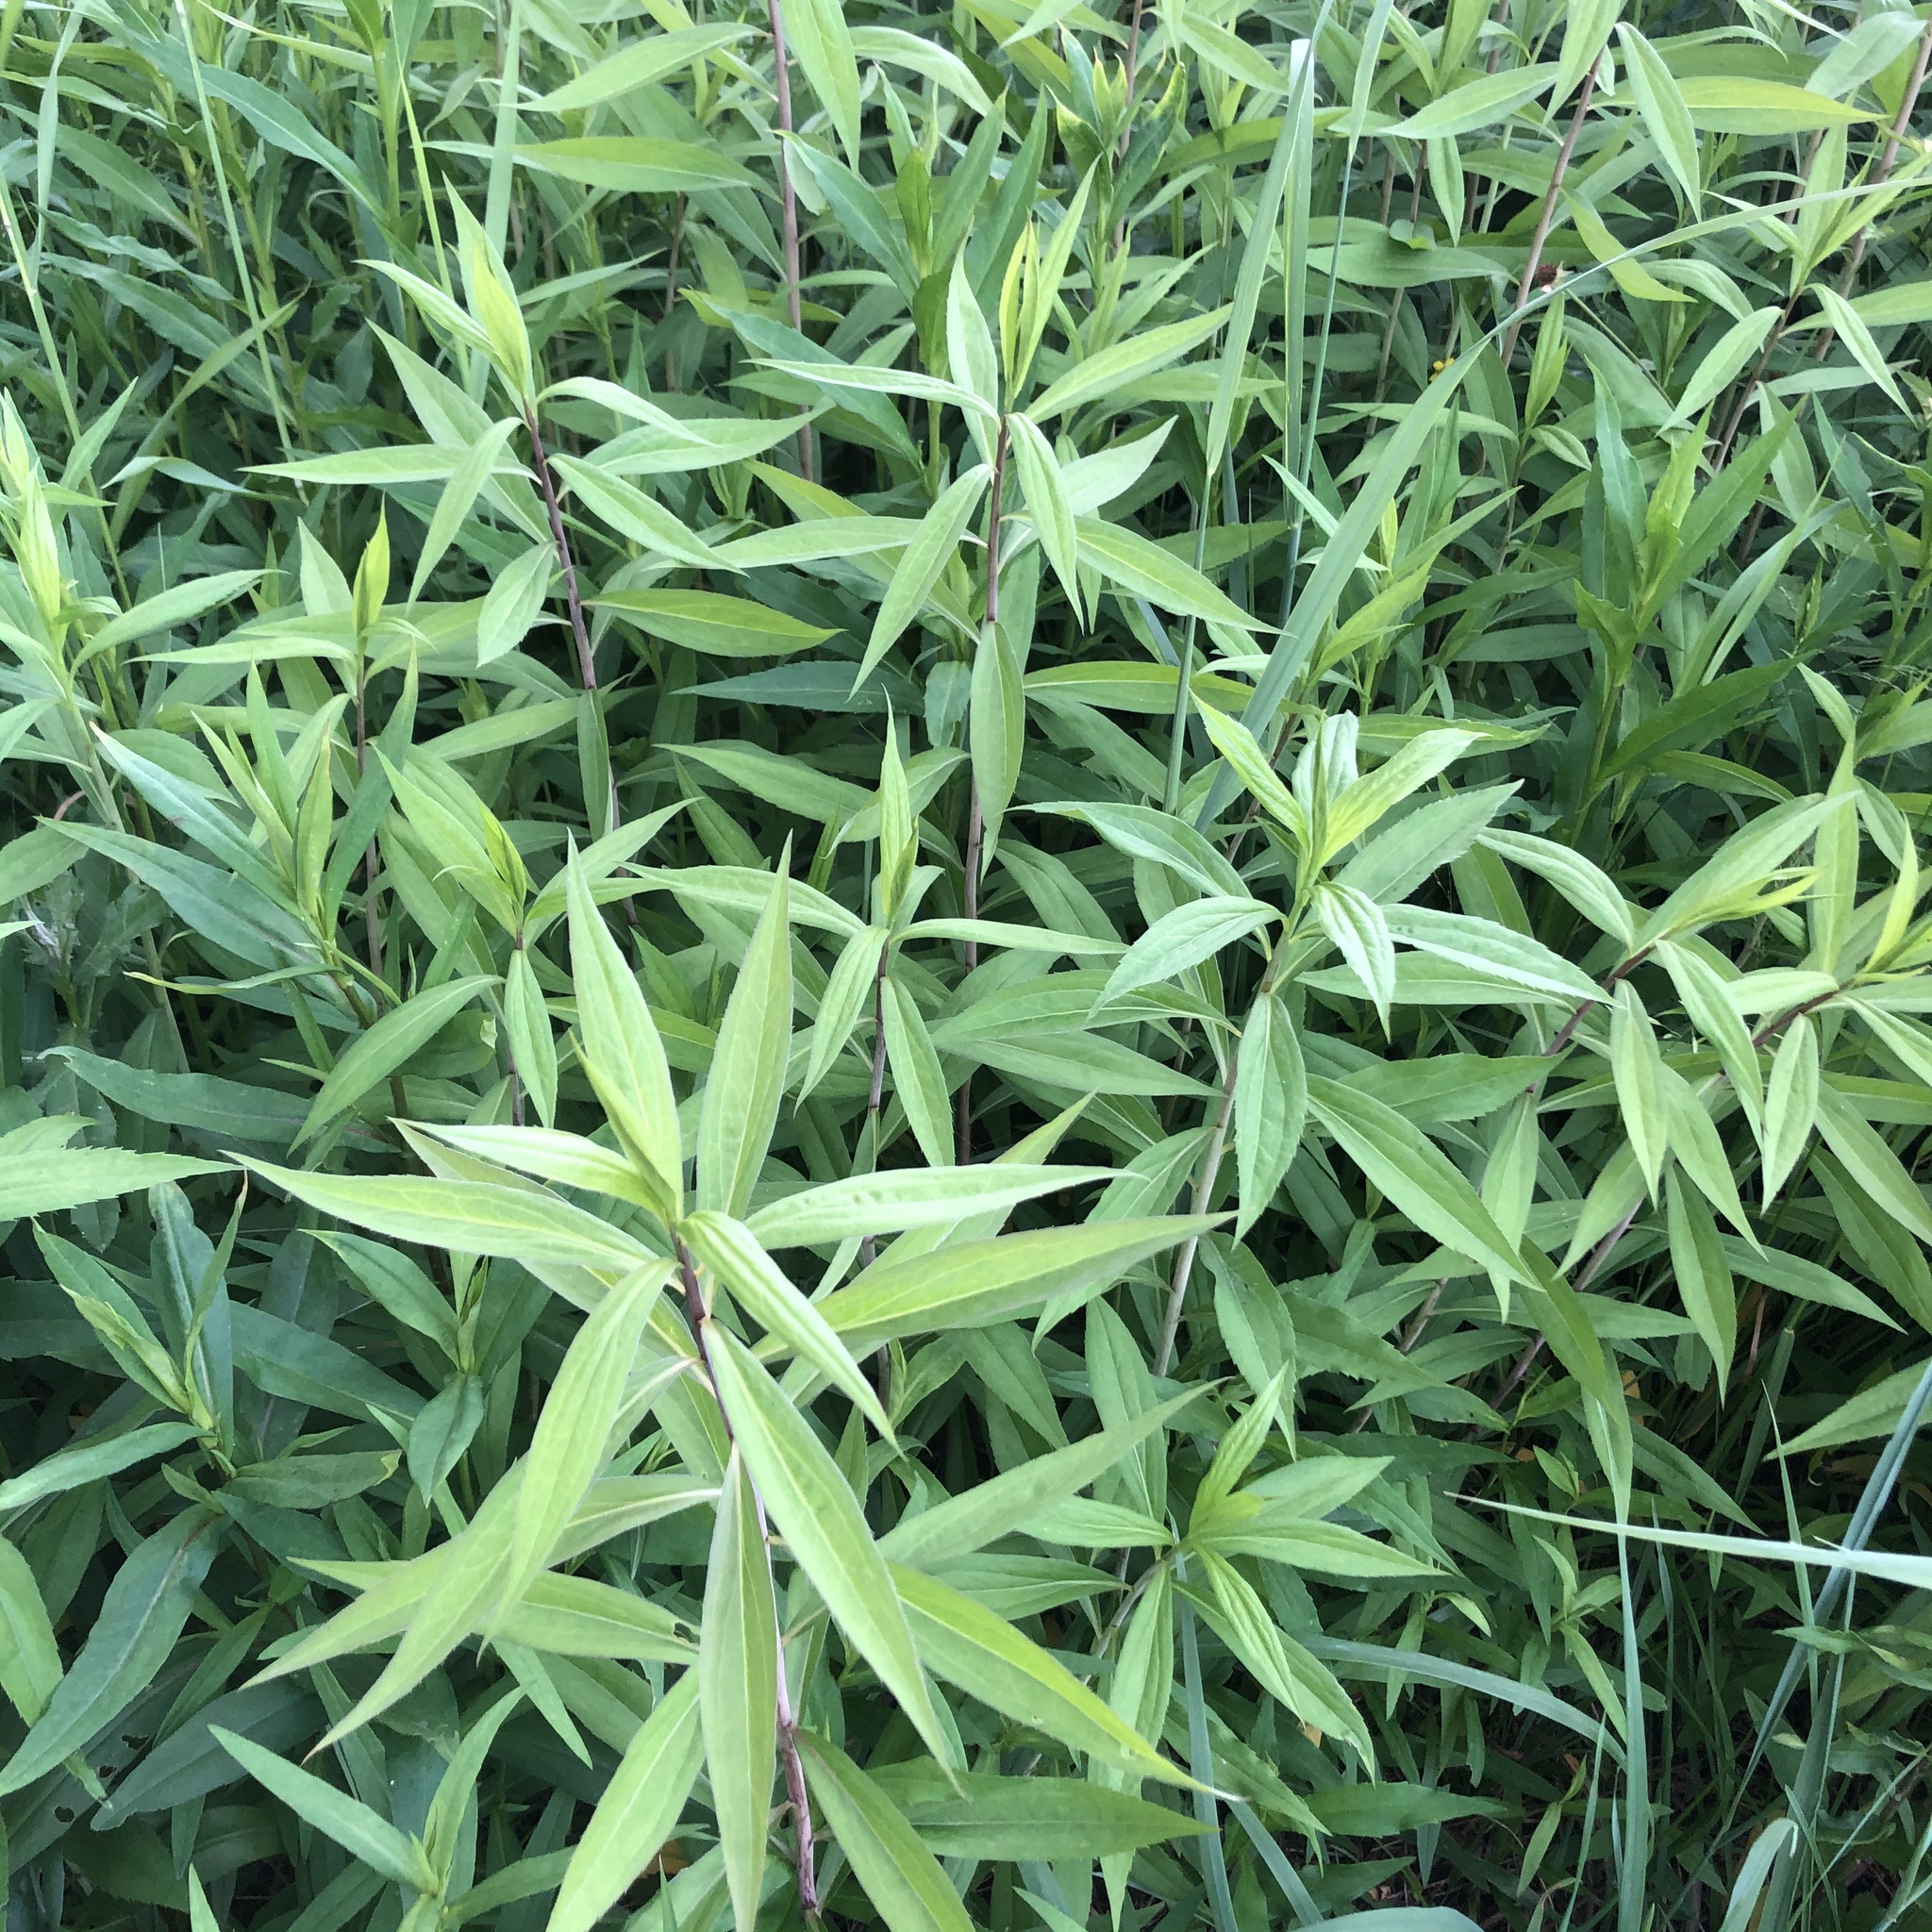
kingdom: Plantae
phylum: Tracheophyta
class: Magnoliopsida
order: Asterales
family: Asteraceae
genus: Solidago
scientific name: Solidago gigantea
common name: Giant goldenrod
